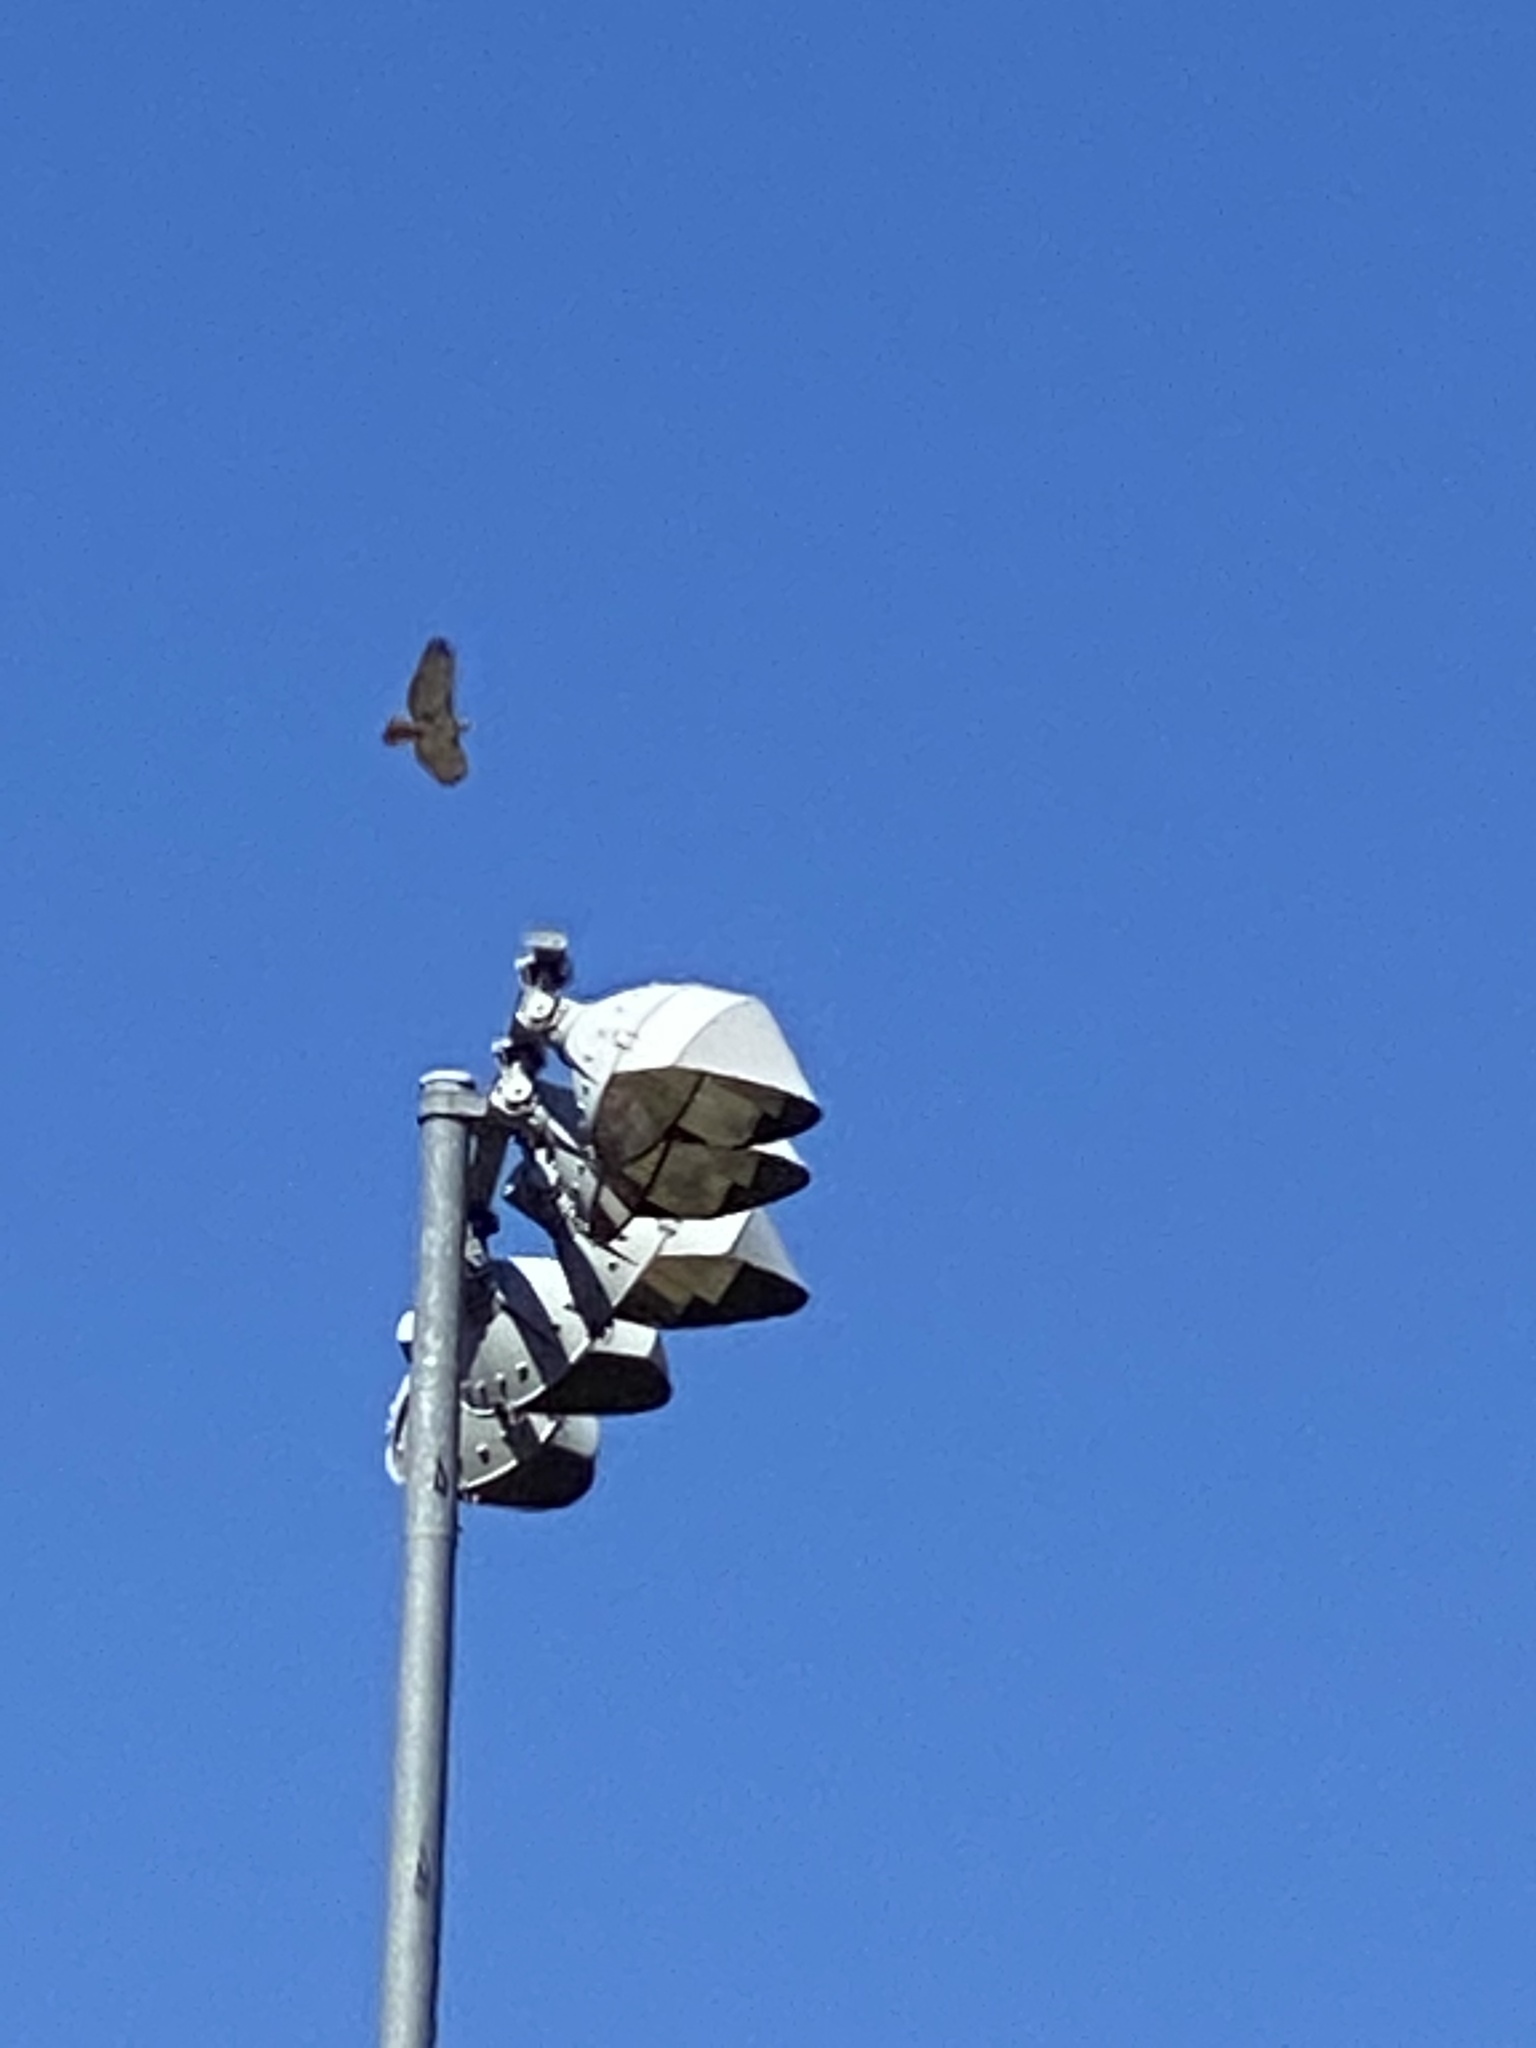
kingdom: Animalia
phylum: Chordata
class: Aves
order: Accipitriformes
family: Accipitridae
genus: Buteo
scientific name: Buteo jamaicensis
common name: Red-tailed hawk
